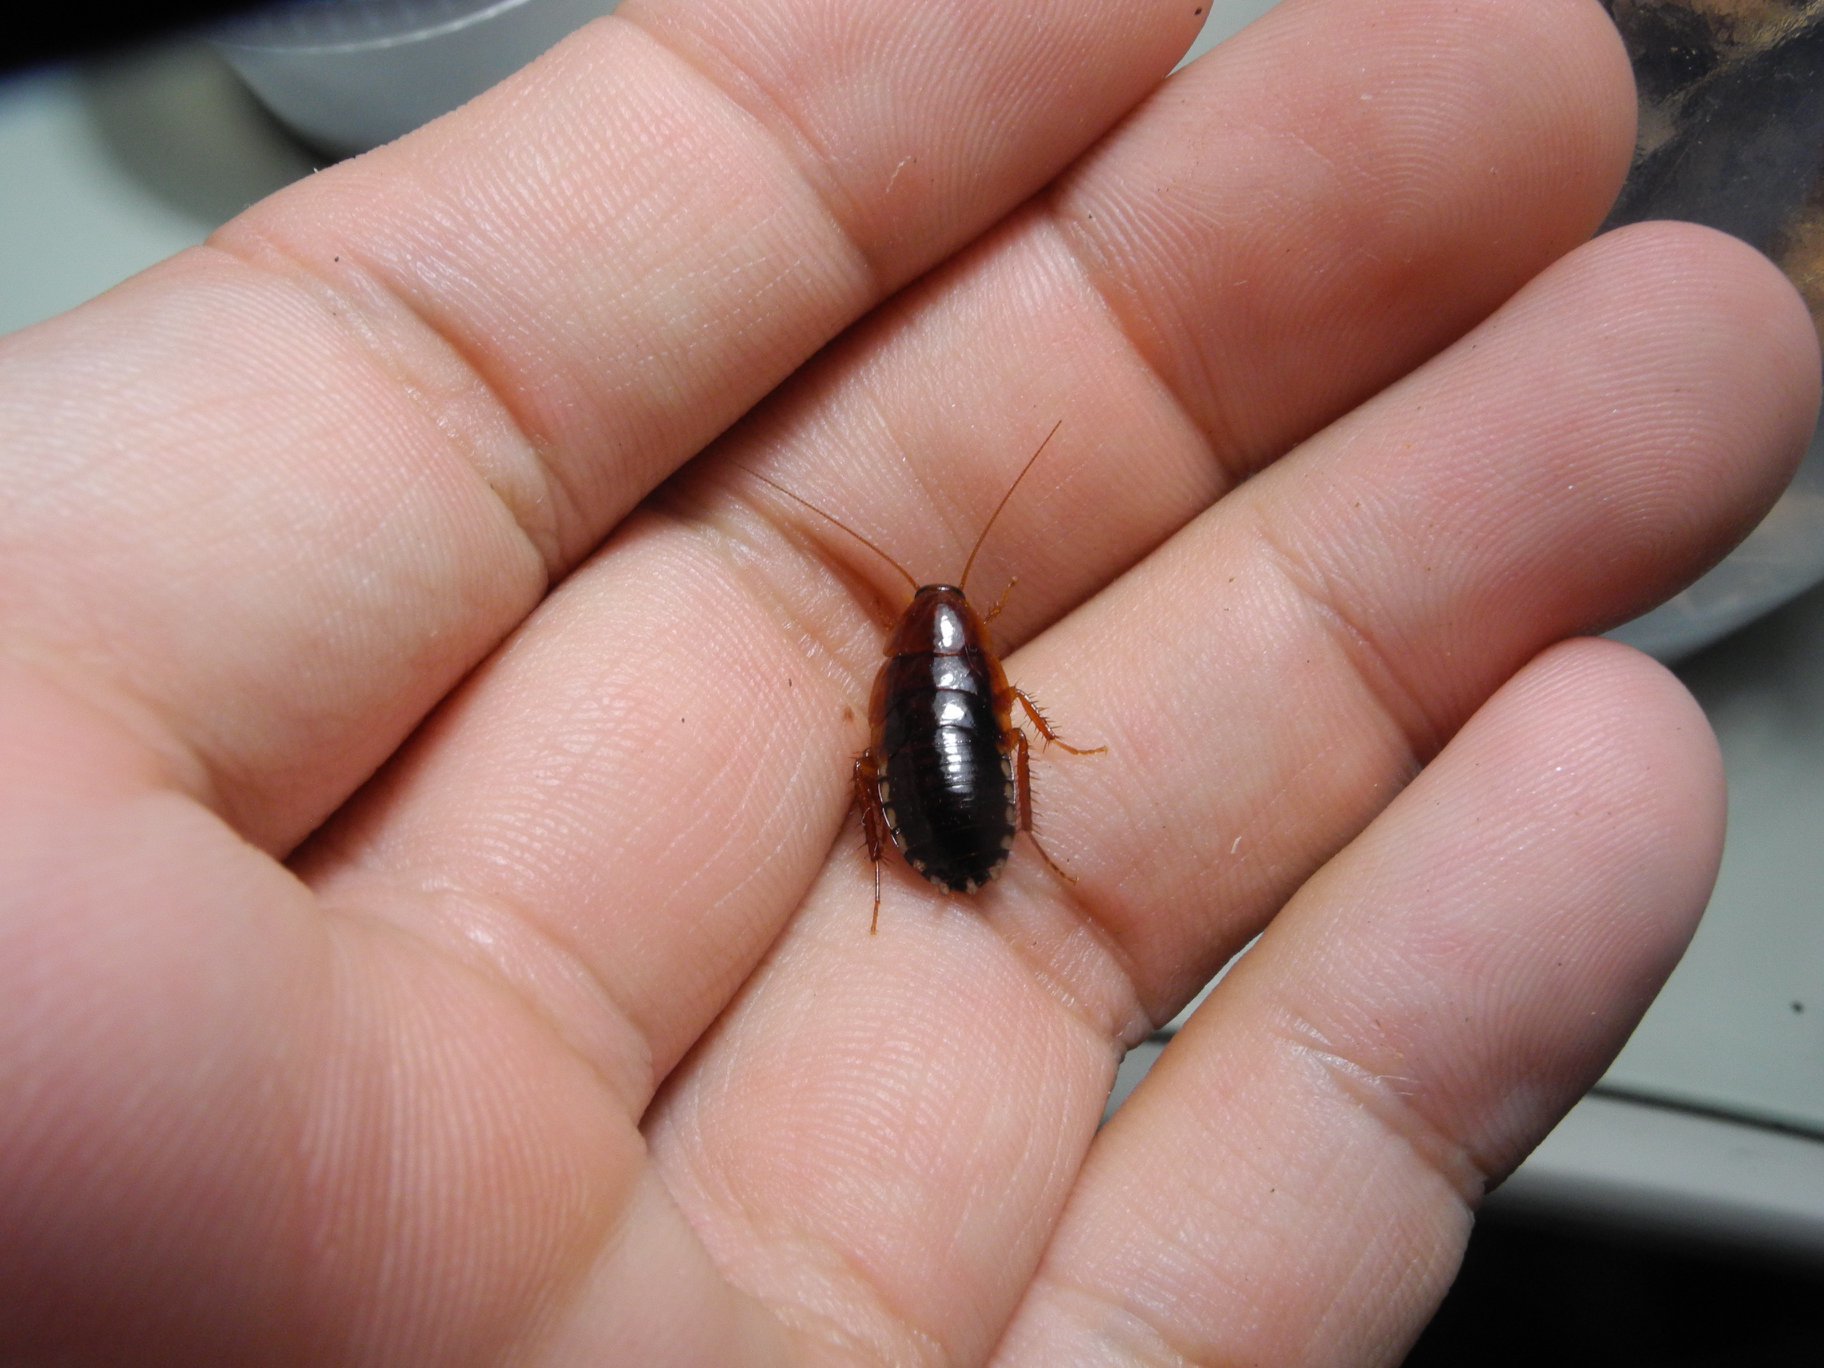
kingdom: Animalia
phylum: Arthropoda
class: Insecta
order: Blattodea
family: Ectobiidae
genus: Symploce
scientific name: Symploce morsei
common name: Wood cockroach
